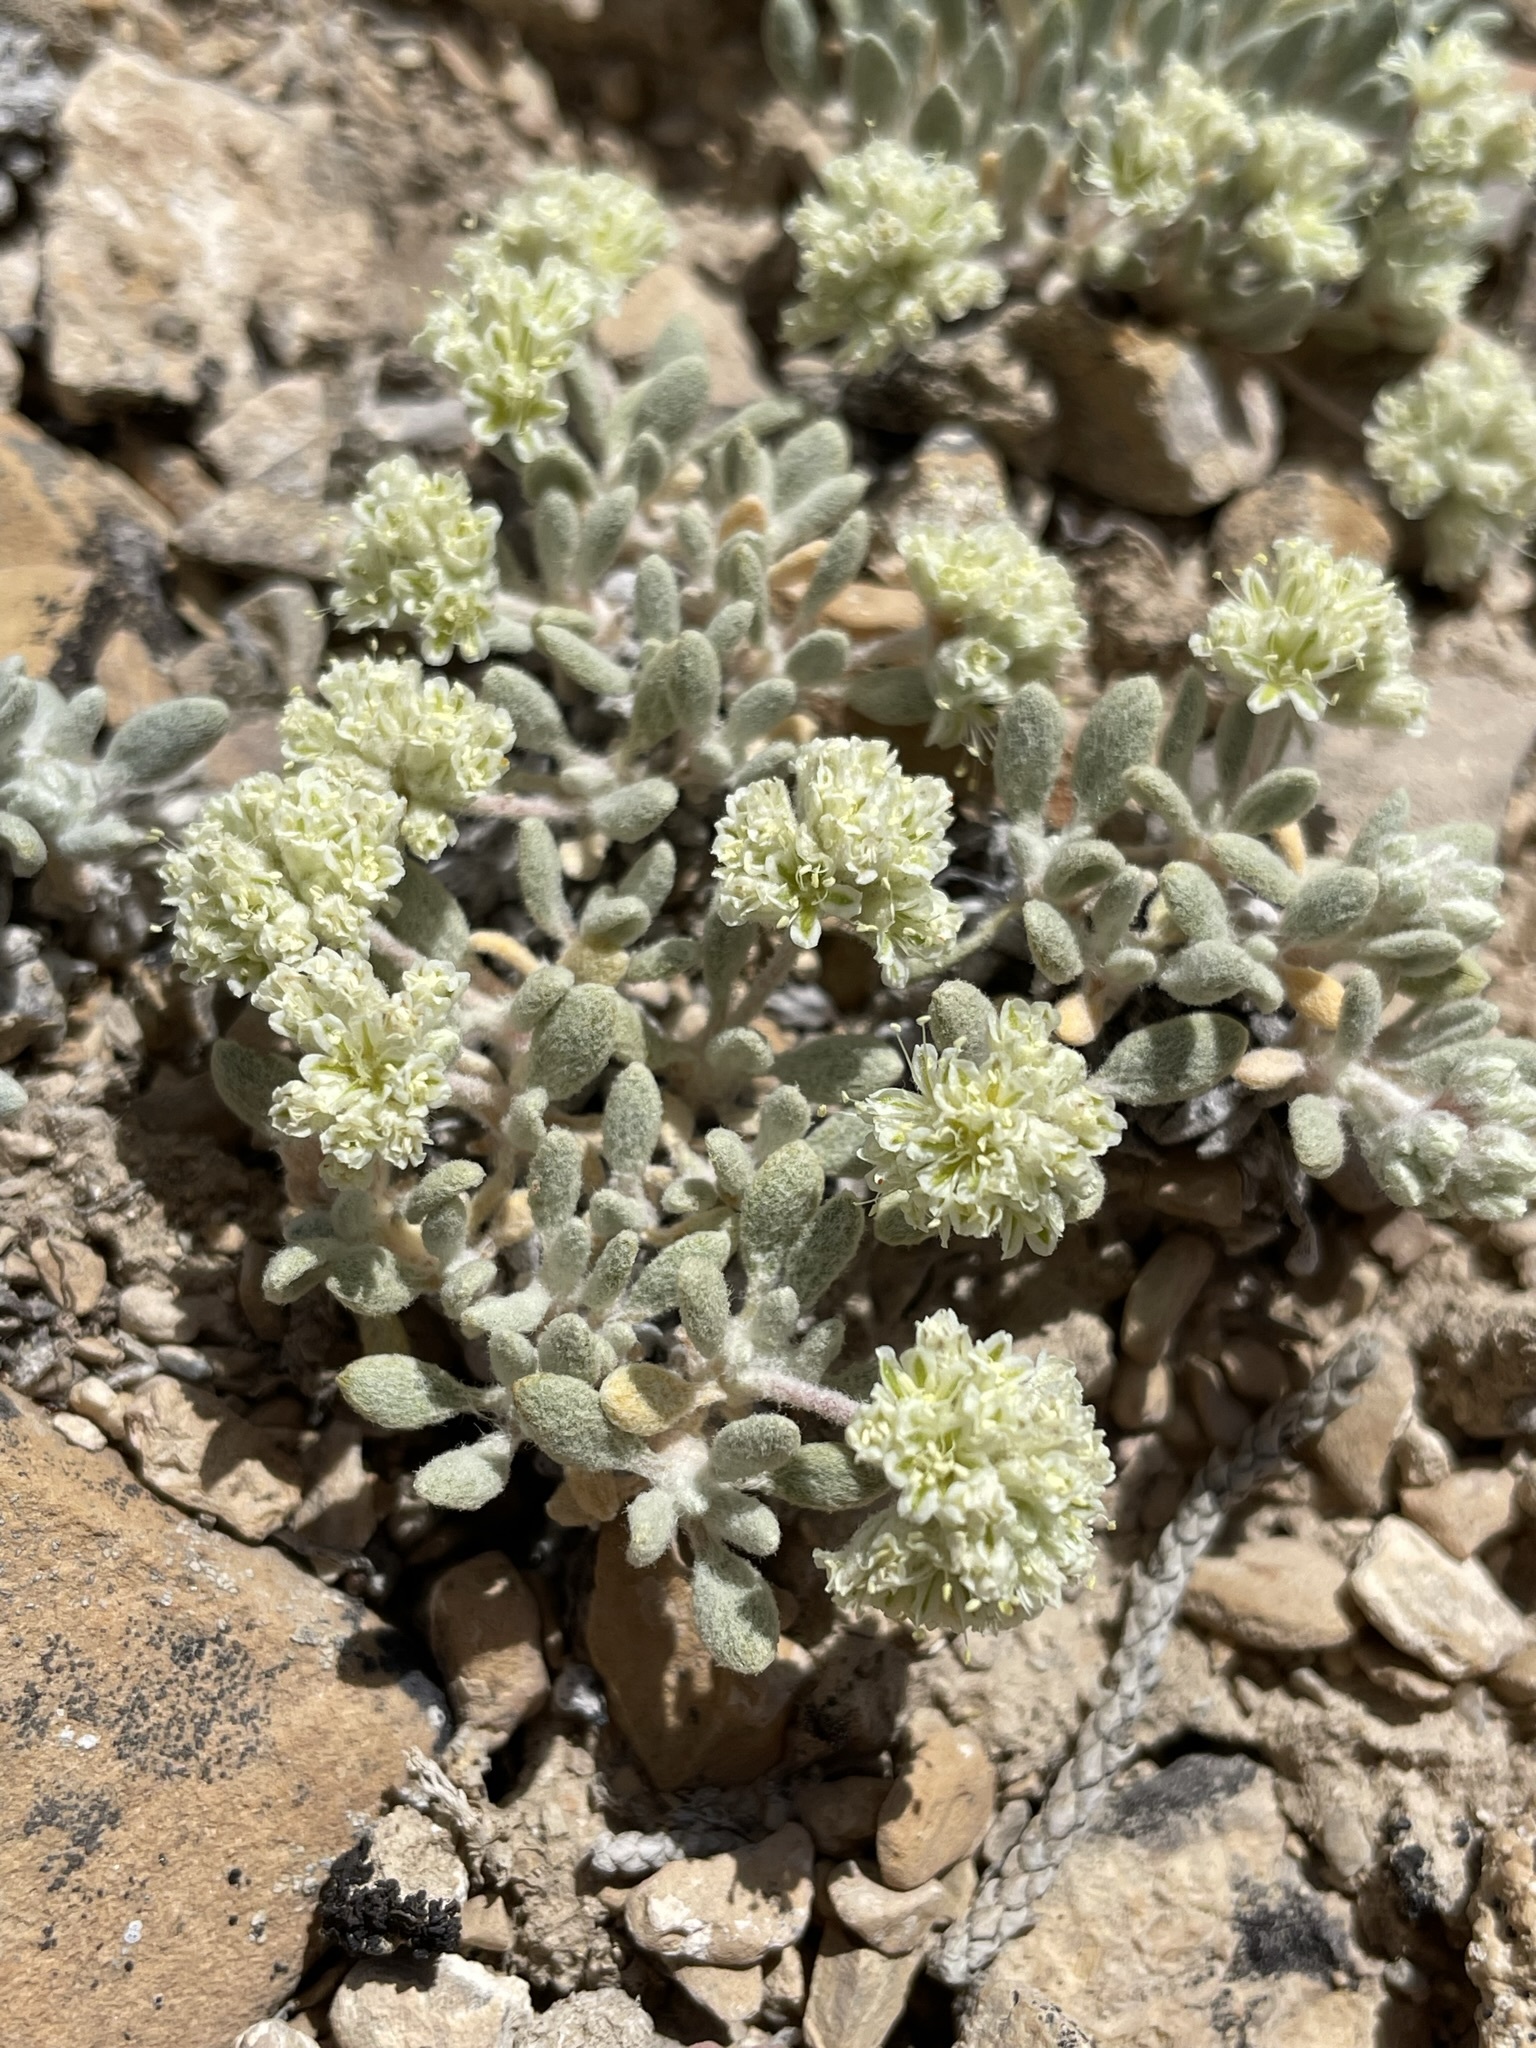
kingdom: Plantae
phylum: Tracheophyta
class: Magnoliopsida
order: Caryophyllales
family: Polygonaceae
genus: Eriogonum
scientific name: Eriogonum shockleyi
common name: Shockley's wild buckwheat
